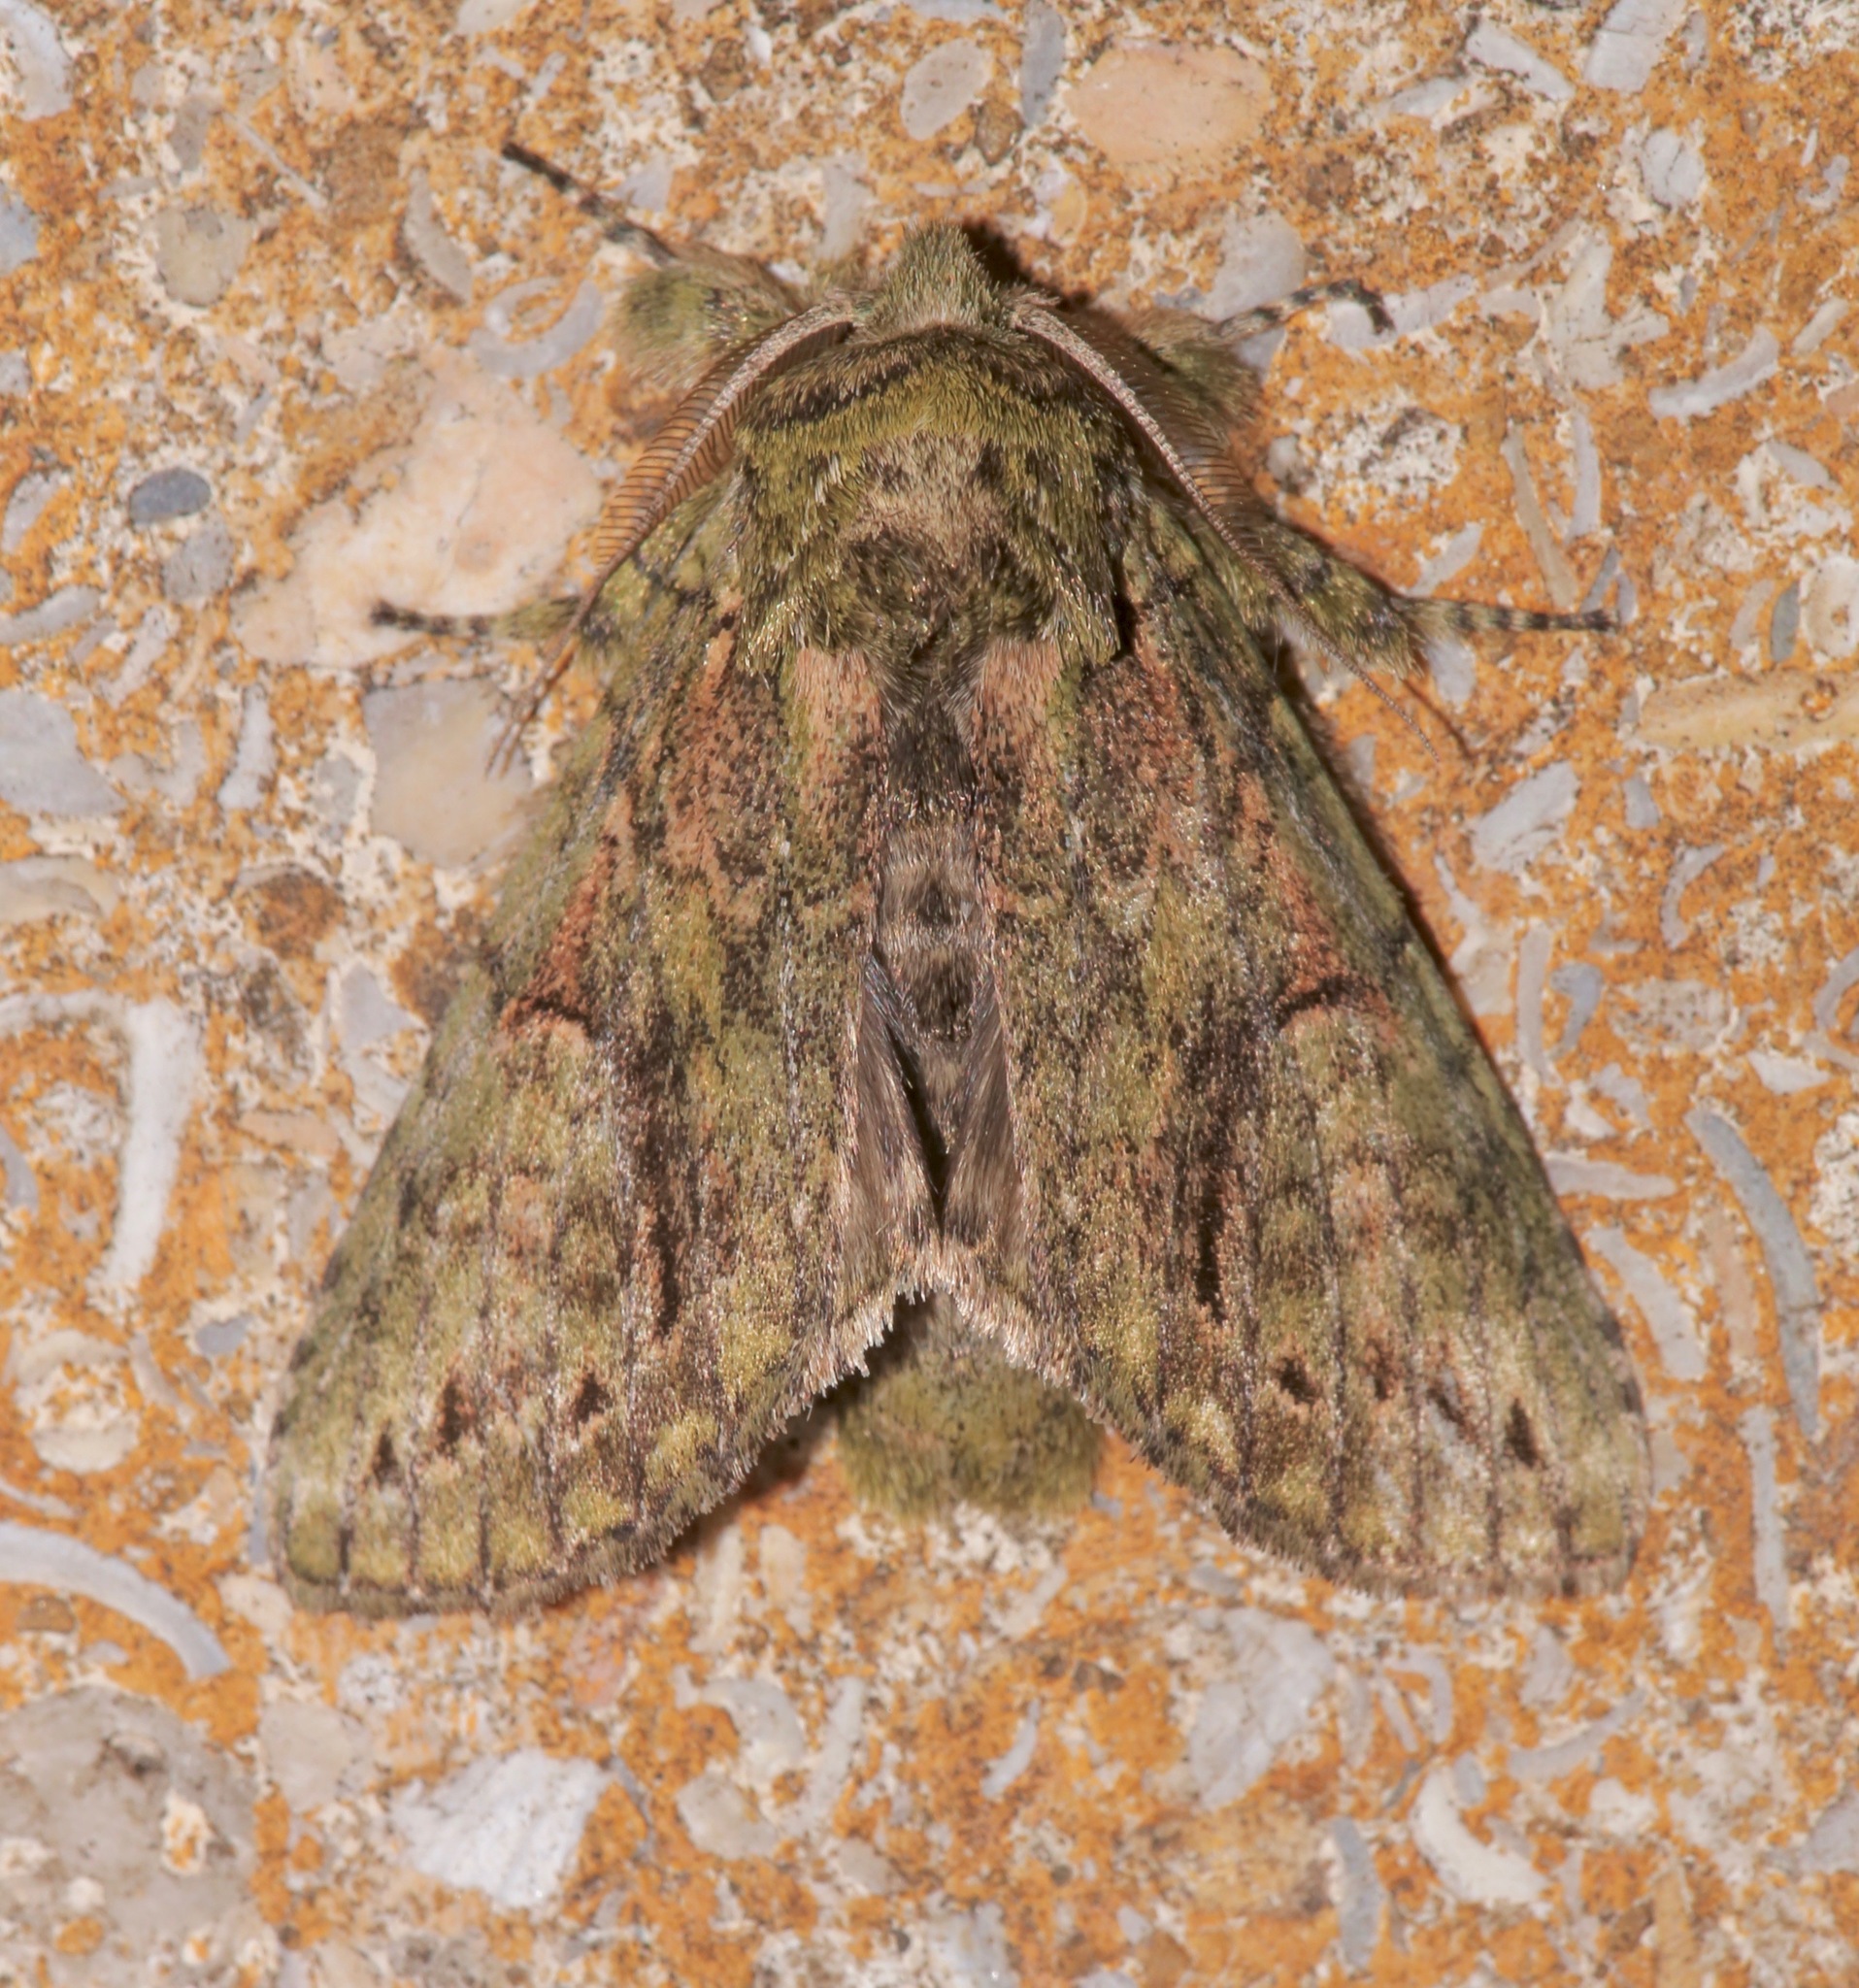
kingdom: Animalia
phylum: Arthropoda
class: Insecta
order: Lepidoptera
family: Notodontidae
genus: Heterocampa
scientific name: Heterocampa umbrata
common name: White-blotched heterocampa
